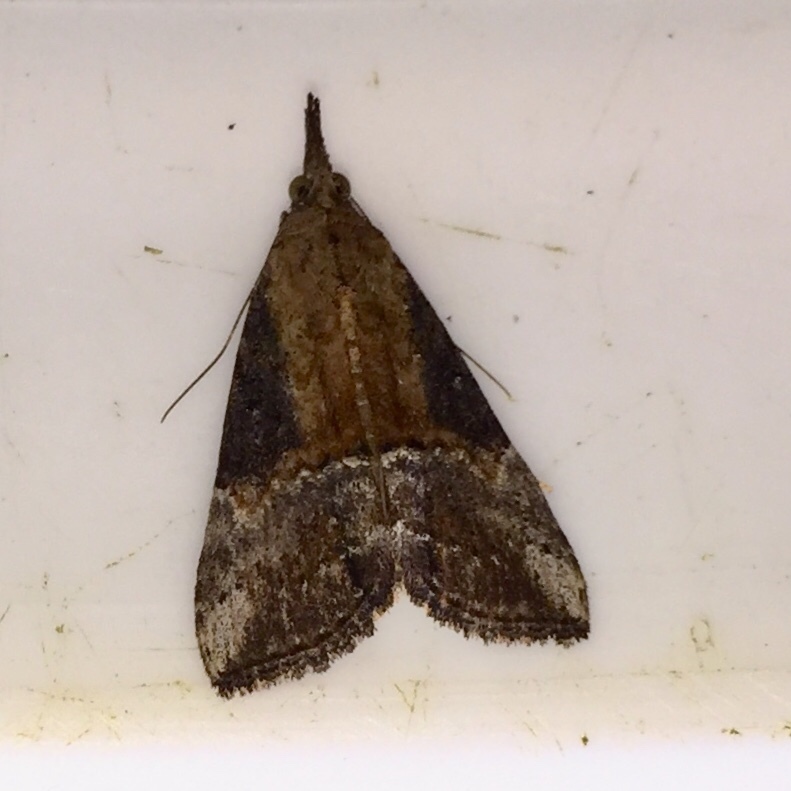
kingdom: Animalia
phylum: Arthropoda
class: Insecta
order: Lepidoptera
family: Erebidae
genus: Hypena
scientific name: Hypena scabra
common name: Green cloverworm
